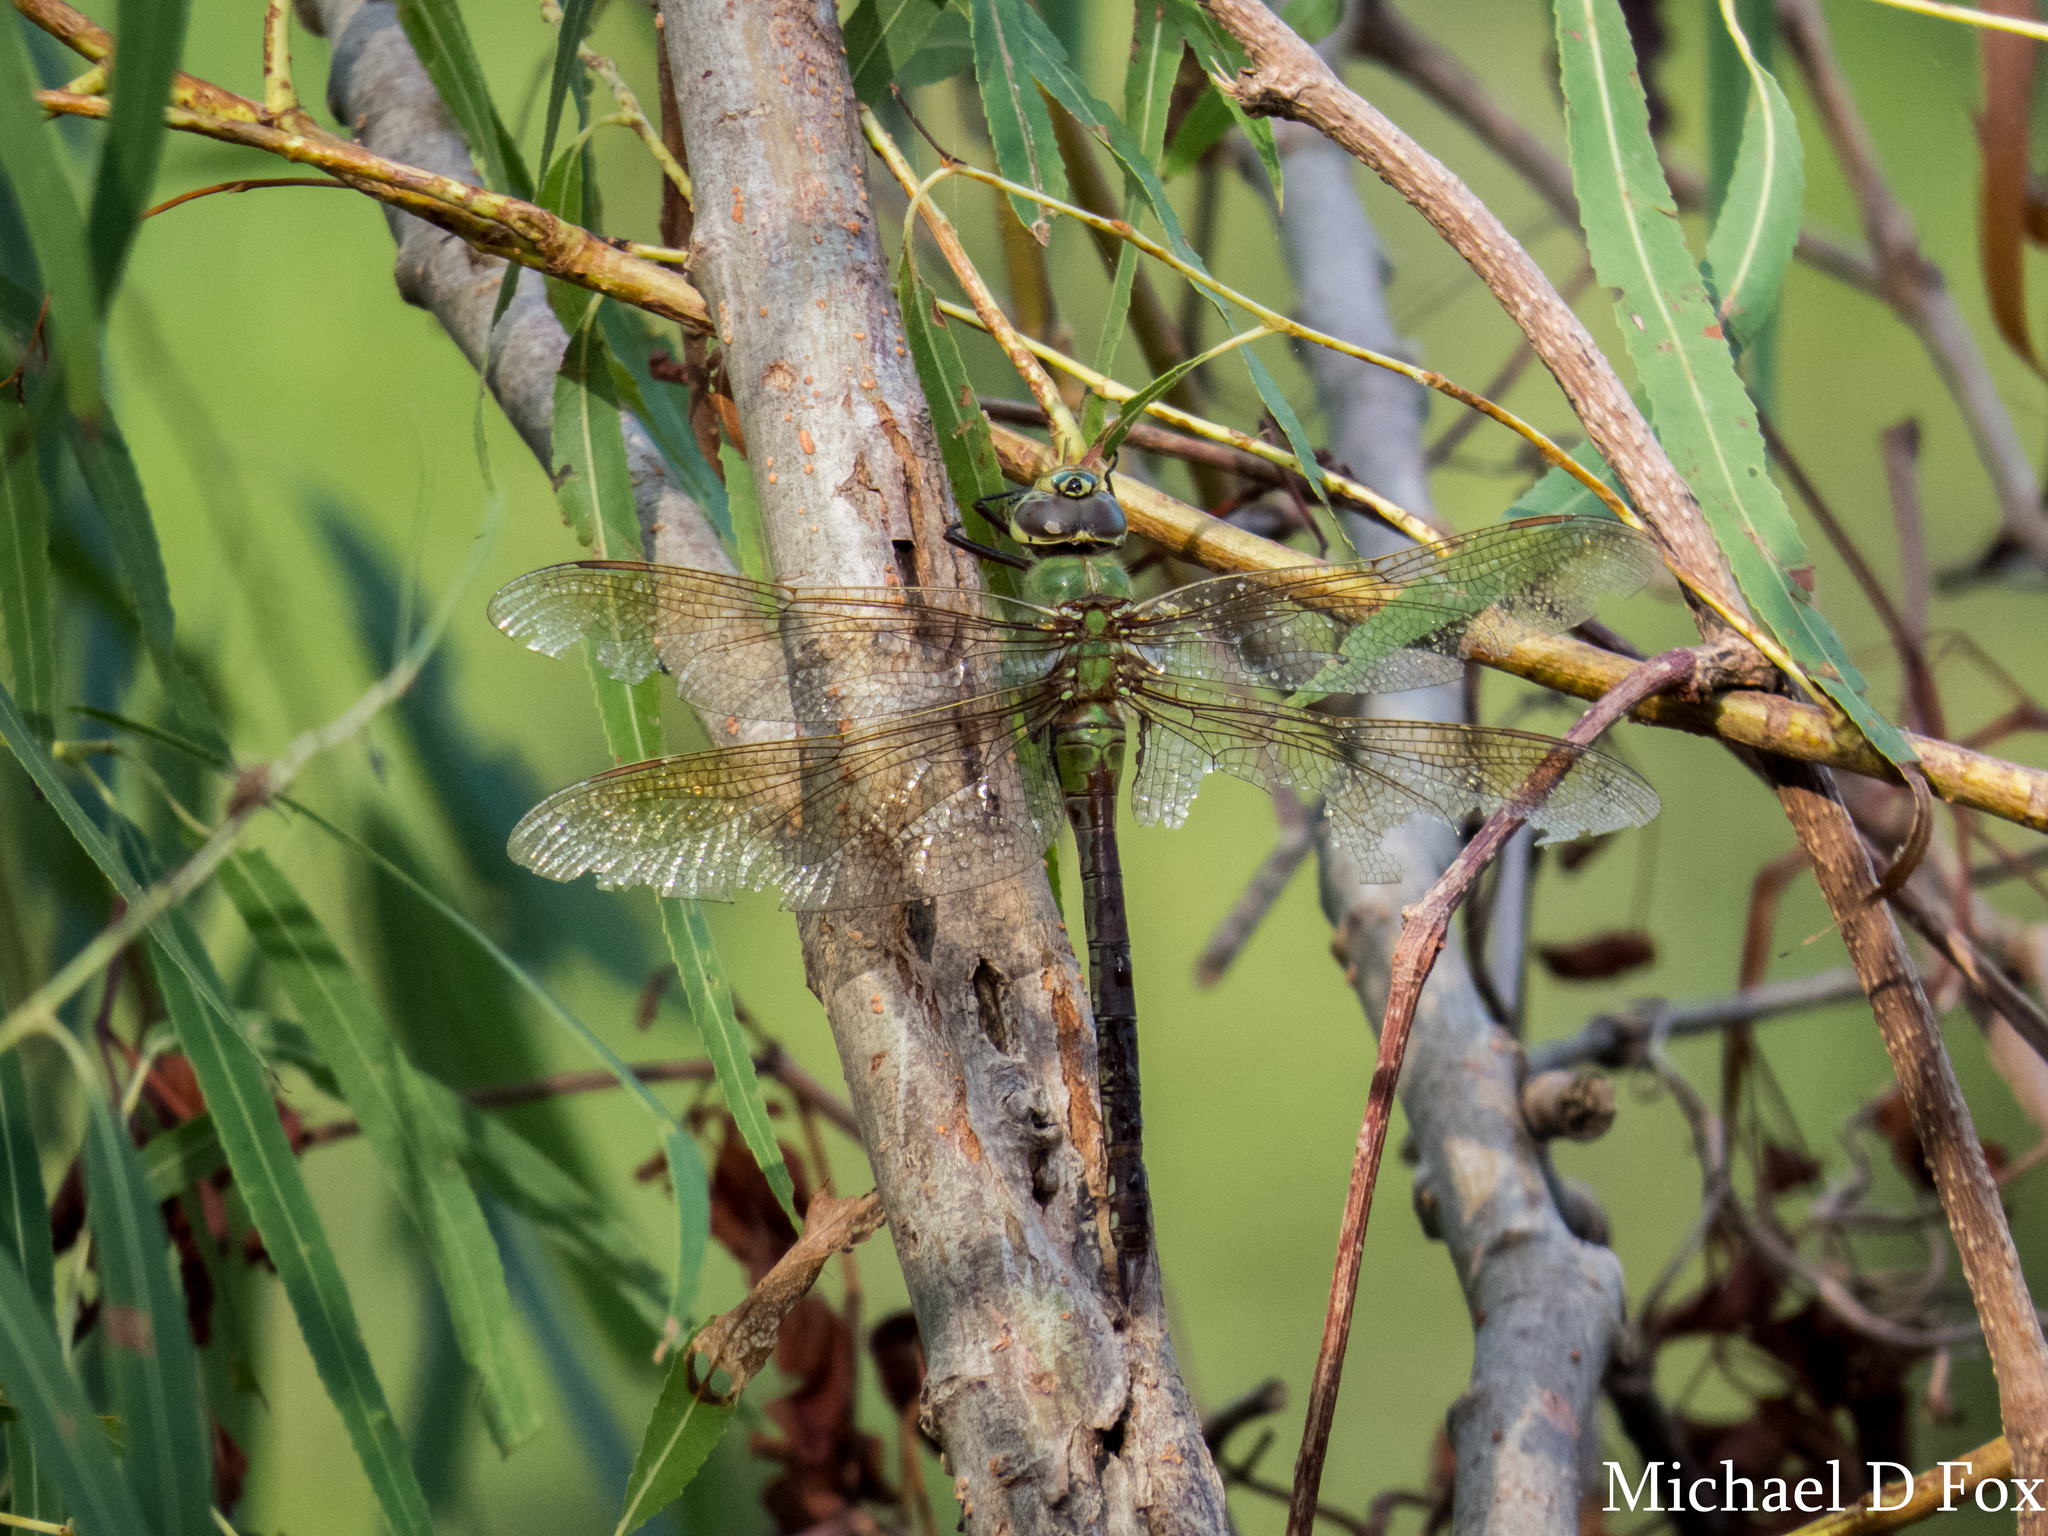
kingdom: Animalia
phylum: Arthropoda
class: Insecta
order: Odonata
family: Aeshnidae
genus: Anax
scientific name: Anax junius
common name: Common green darner
